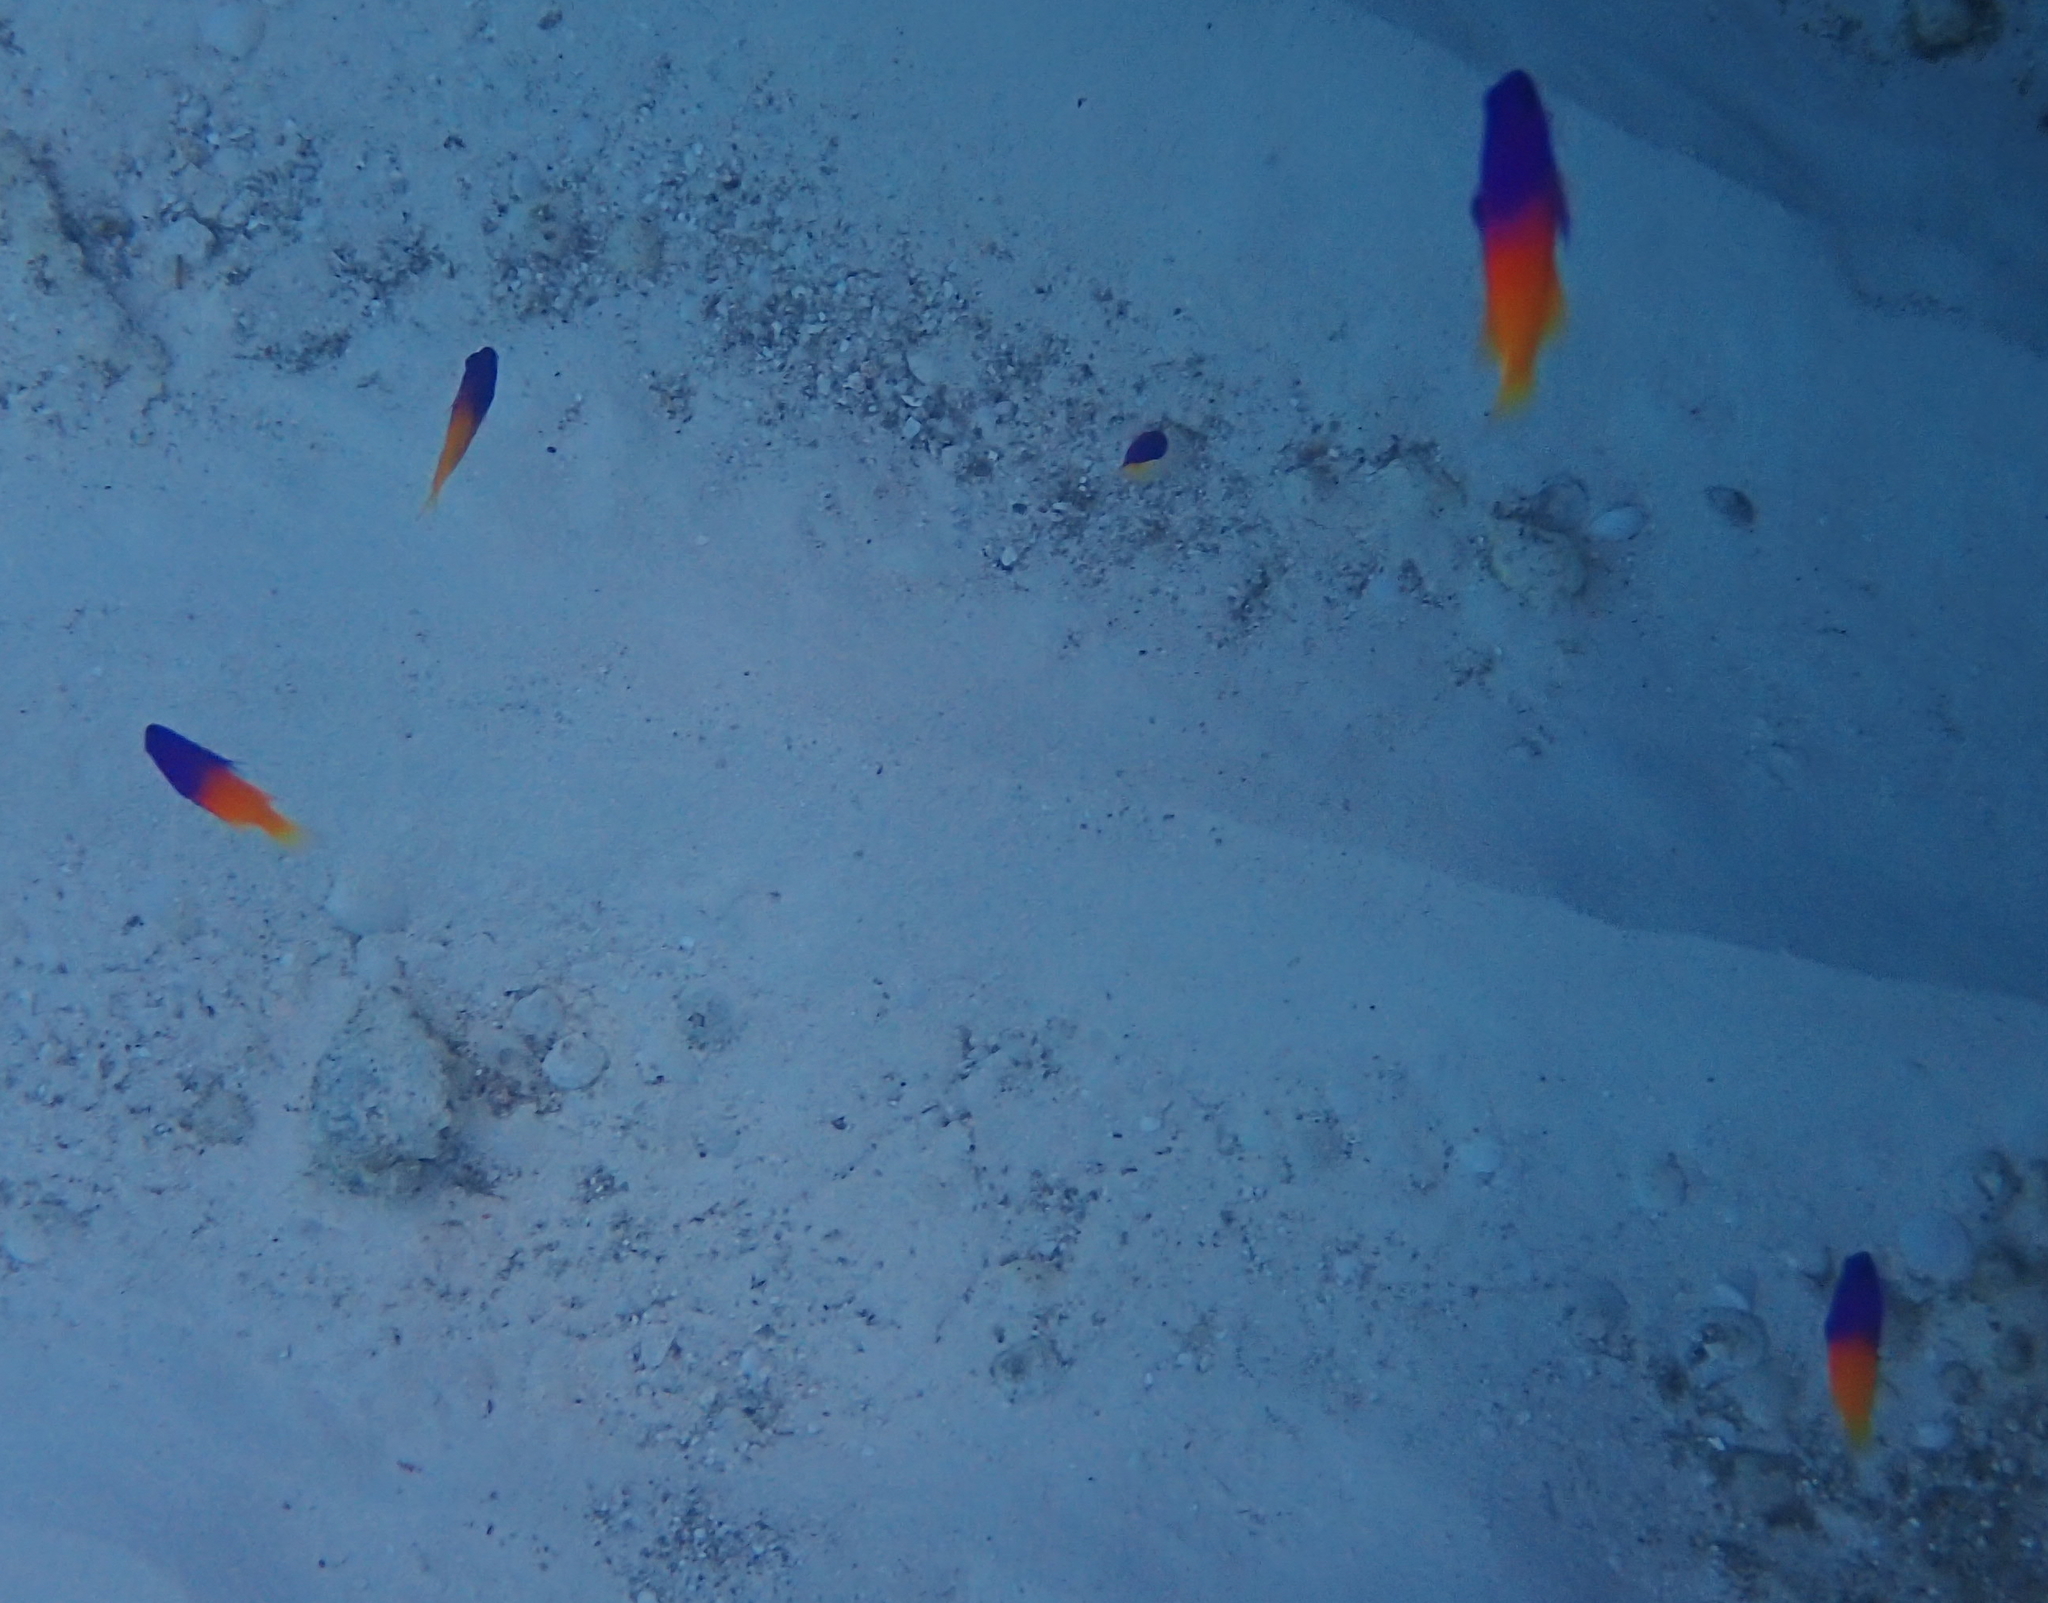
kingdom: Animalia
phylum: Chordata
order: Perciformes
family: Grammatidae
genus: Gramma
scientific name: Gramma loreto
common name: Fairy basslet
